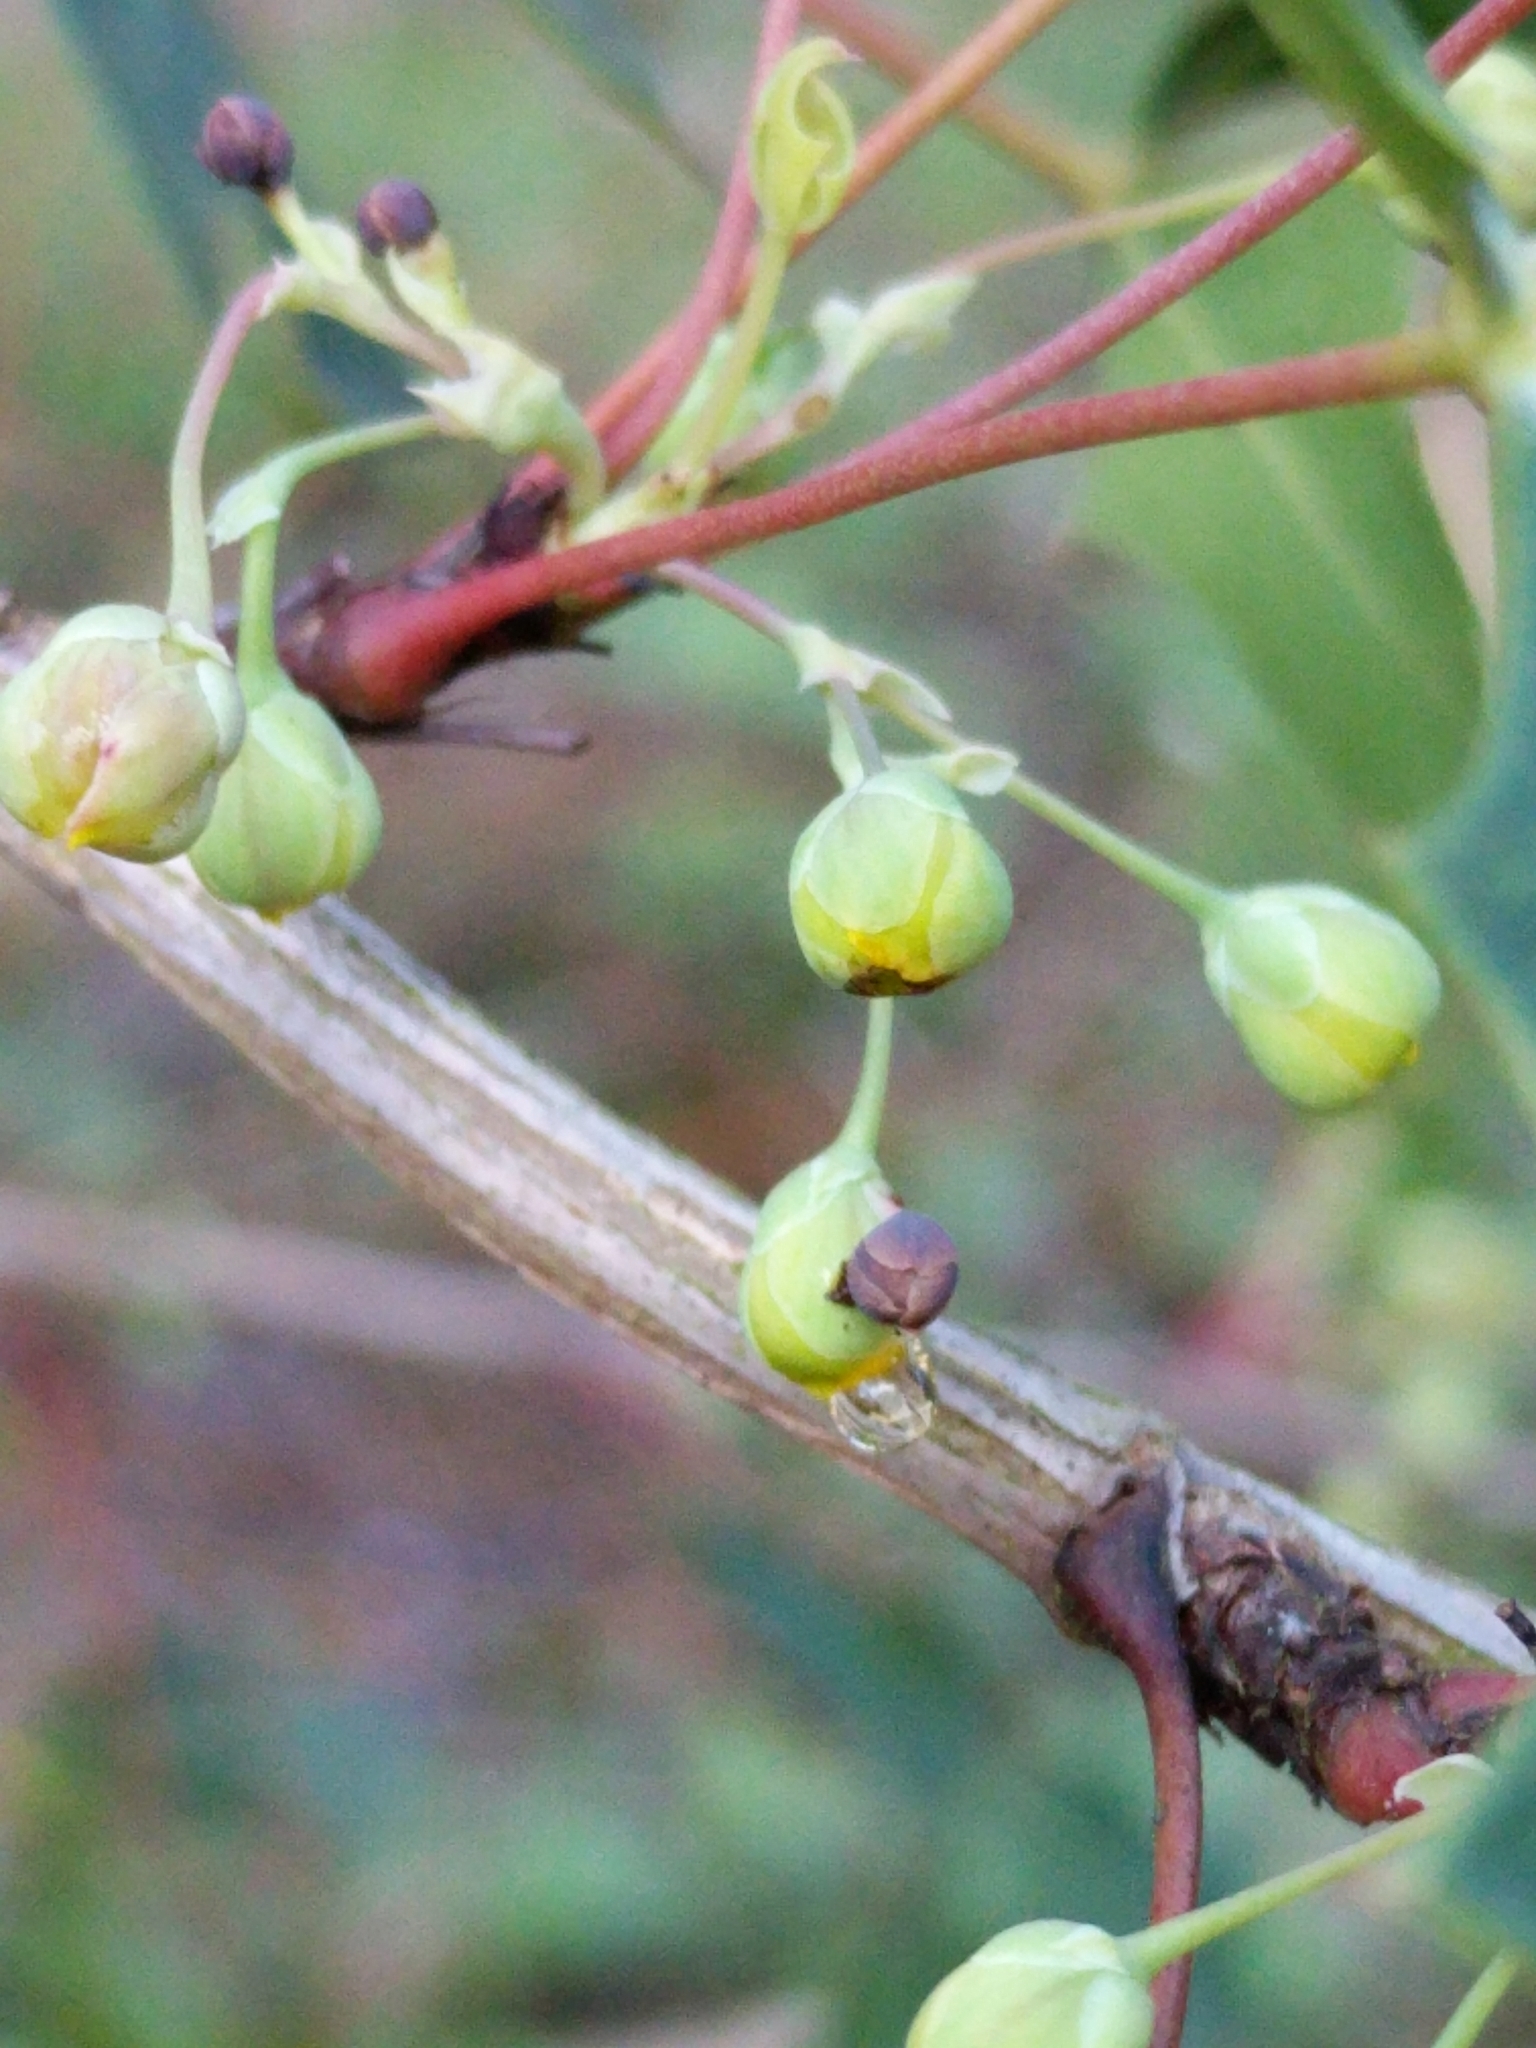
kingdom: Plantae
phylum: Tracheophyta
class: Magnoliopsida
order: Ranunculales
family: Berberidaceae
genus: Alloberberis
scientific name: Alloberberis trifoliolata
